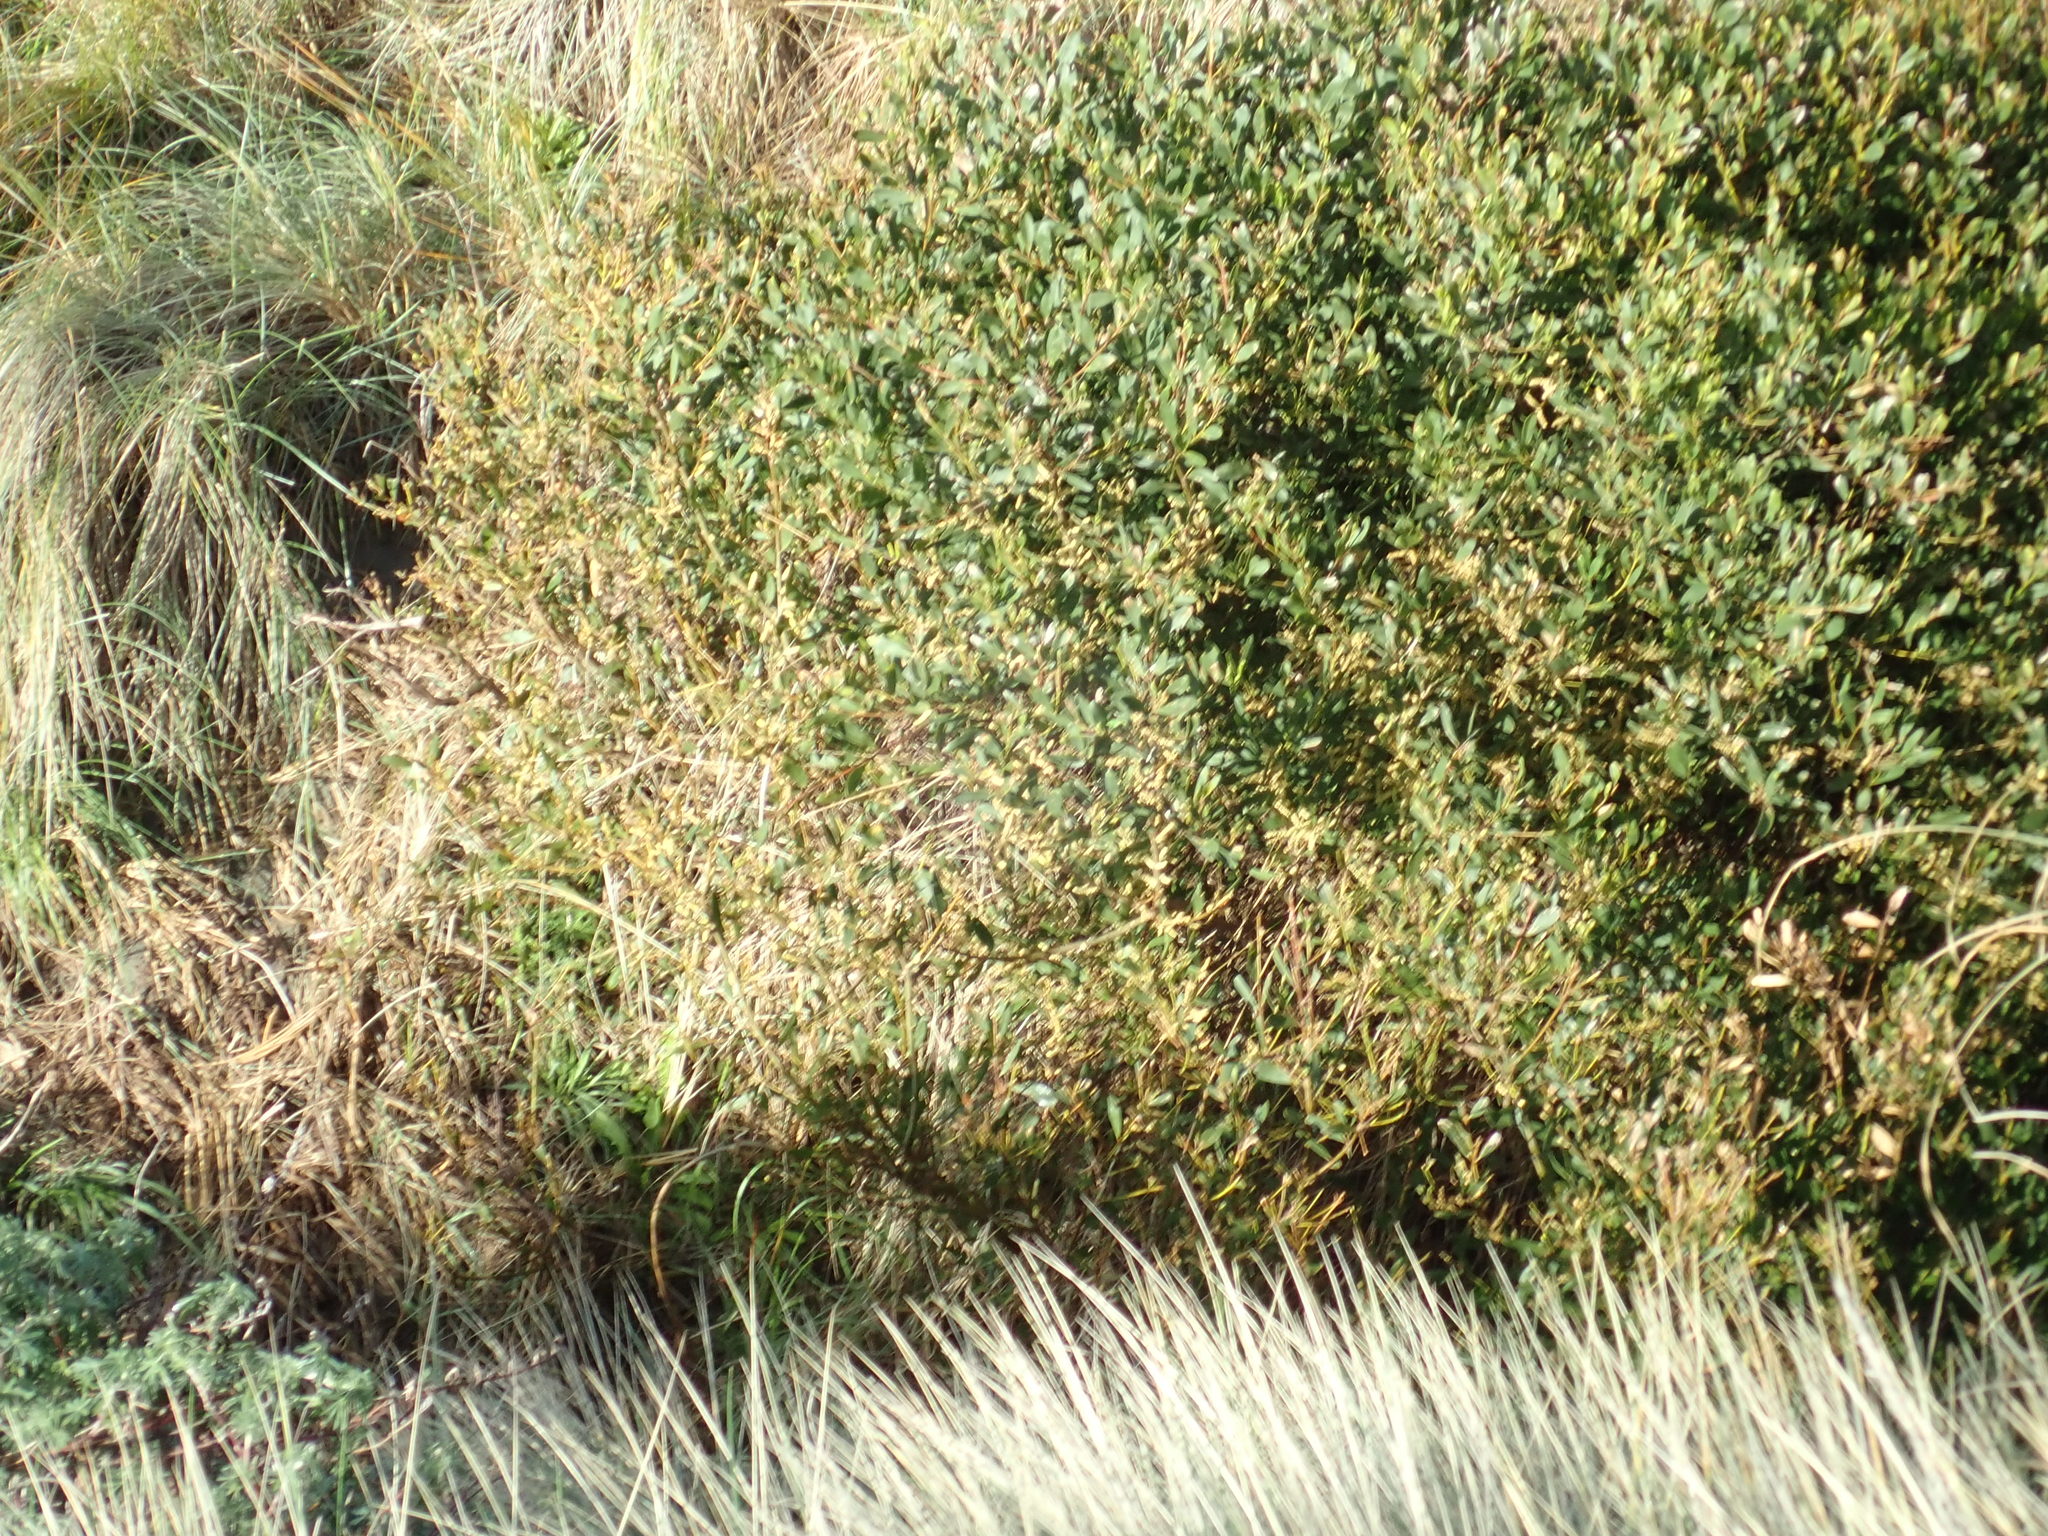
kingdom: Plantae
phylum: Tracheophyta
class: Magnoliopsida
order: Fabales
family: Fabaceae
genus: Acacia
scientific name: Acacia longifolia
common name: Sydney golden wattle
